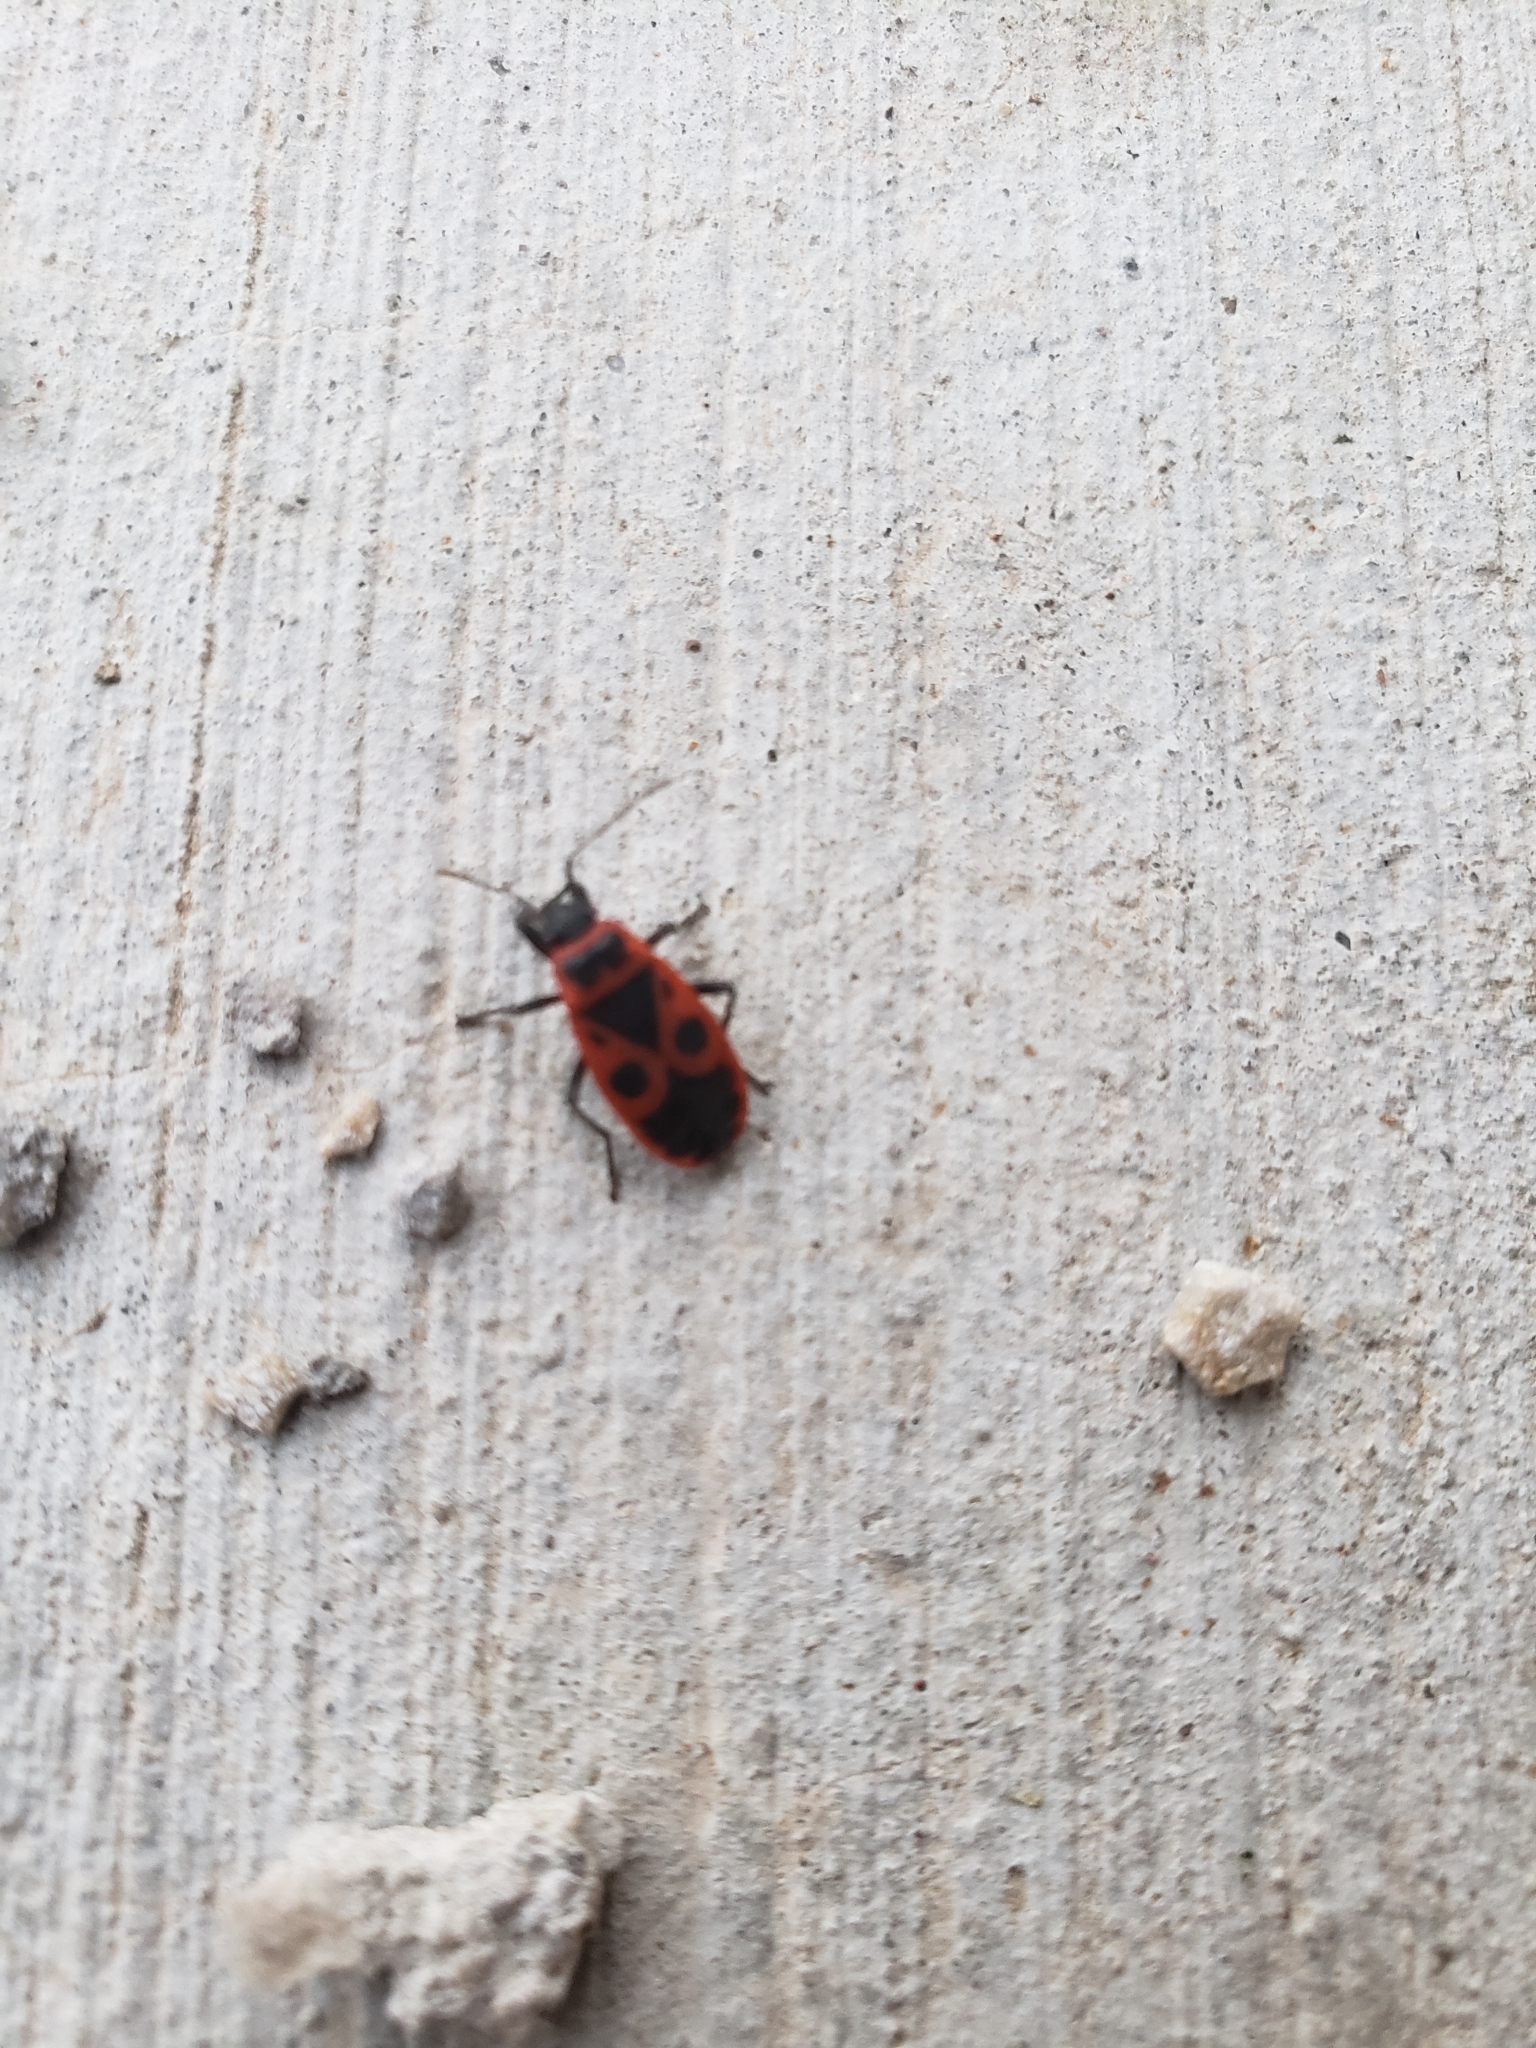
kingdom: Animalia
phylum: Arthropoda
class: Insecta
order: Hemiptera
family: Pyrrhocoridae
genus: Pyrrhocoris
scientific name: Pyrrhocoris apterus
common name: Firebug
